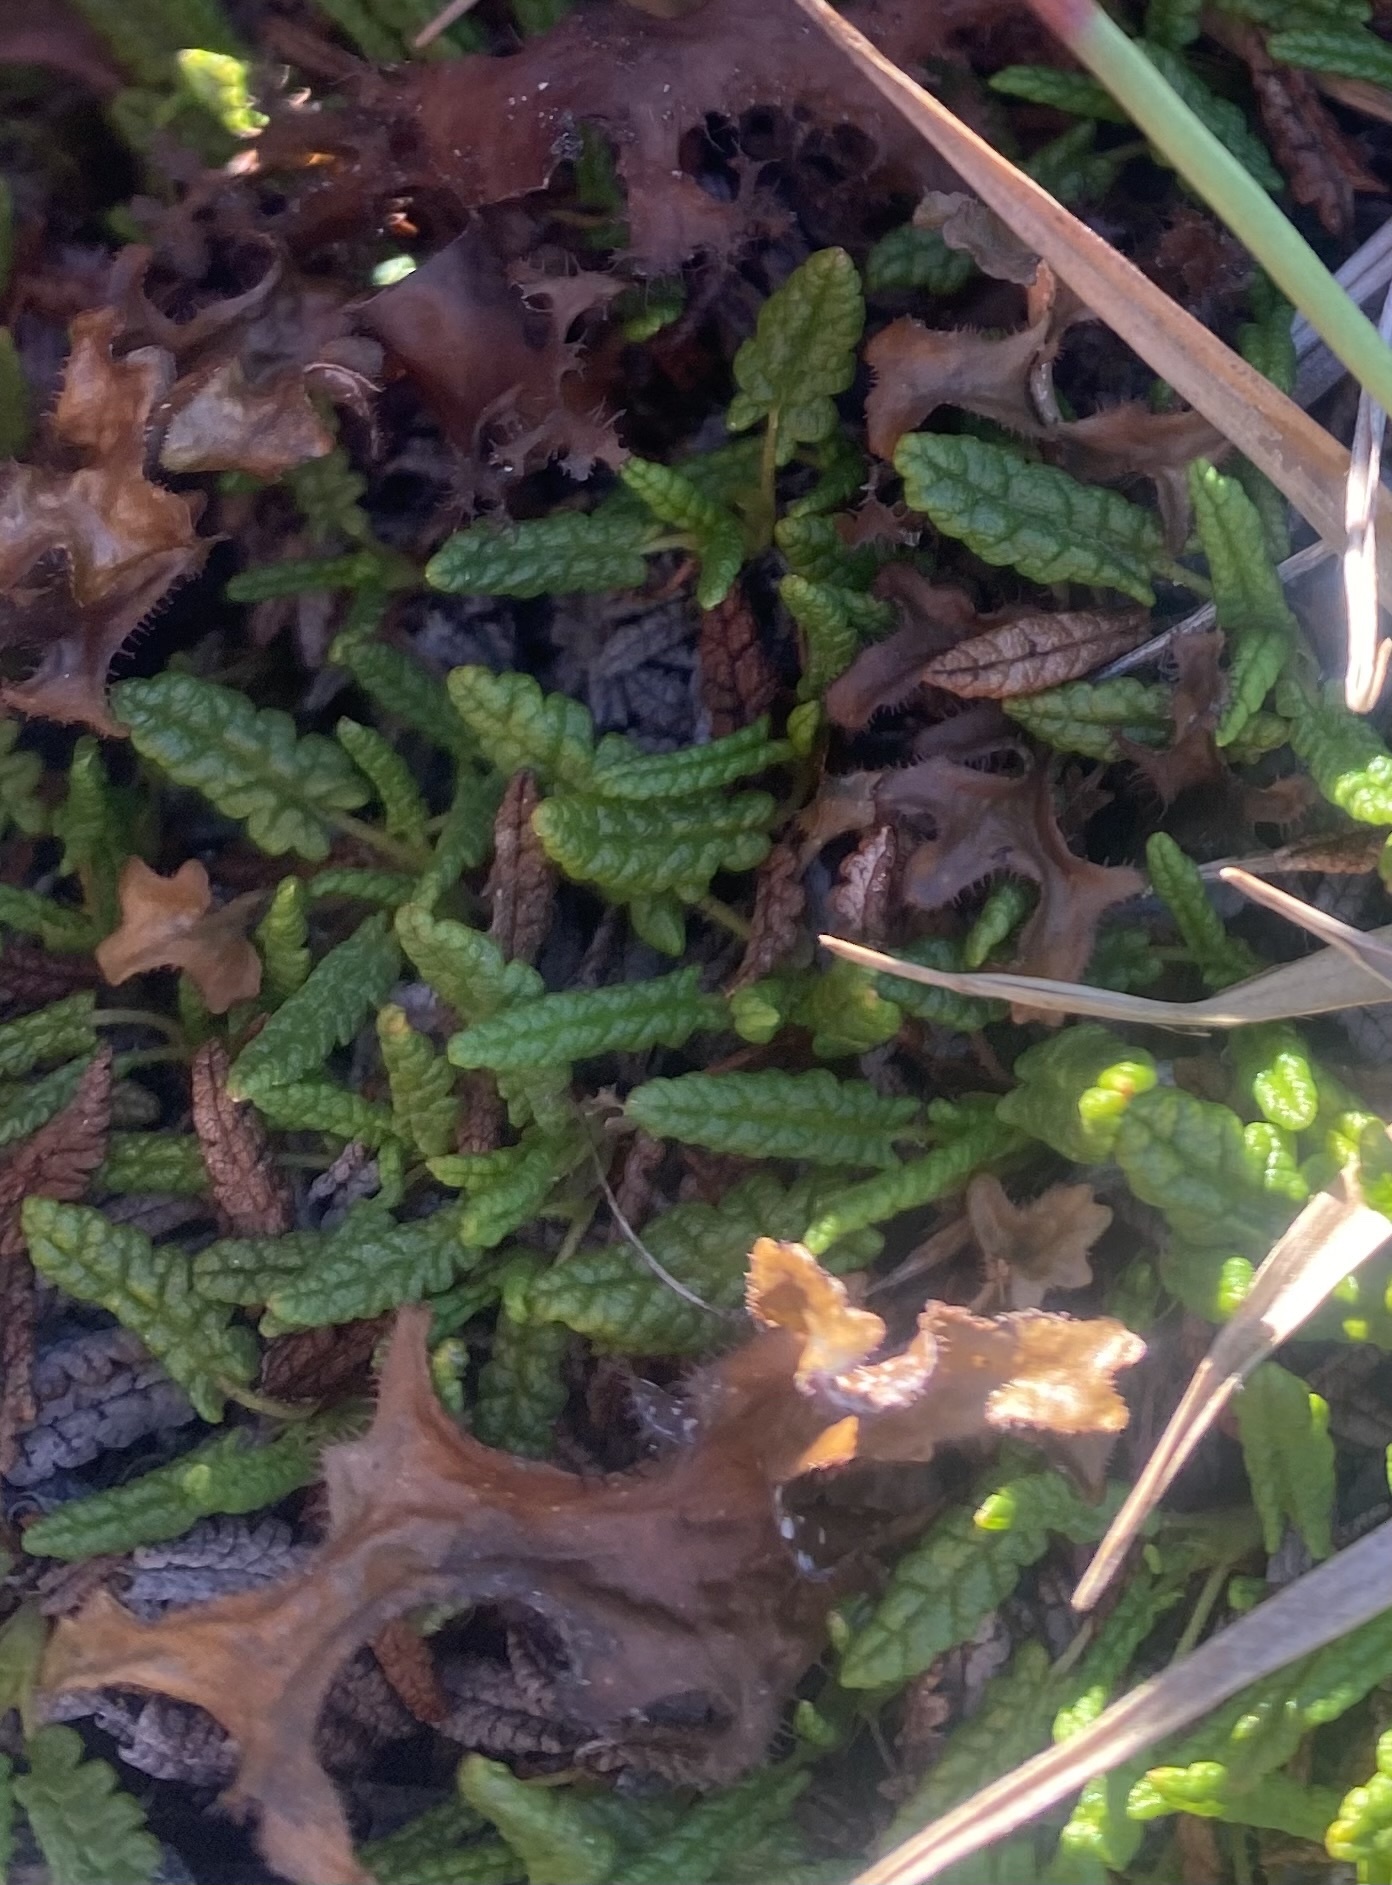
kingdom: Plantae
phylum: Tracheophyta
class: Magnoliopsida
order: Rosales
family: Rosaceae
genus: Dryas
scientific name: Dryas octopetala
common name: Eight-petal mountain-avens
